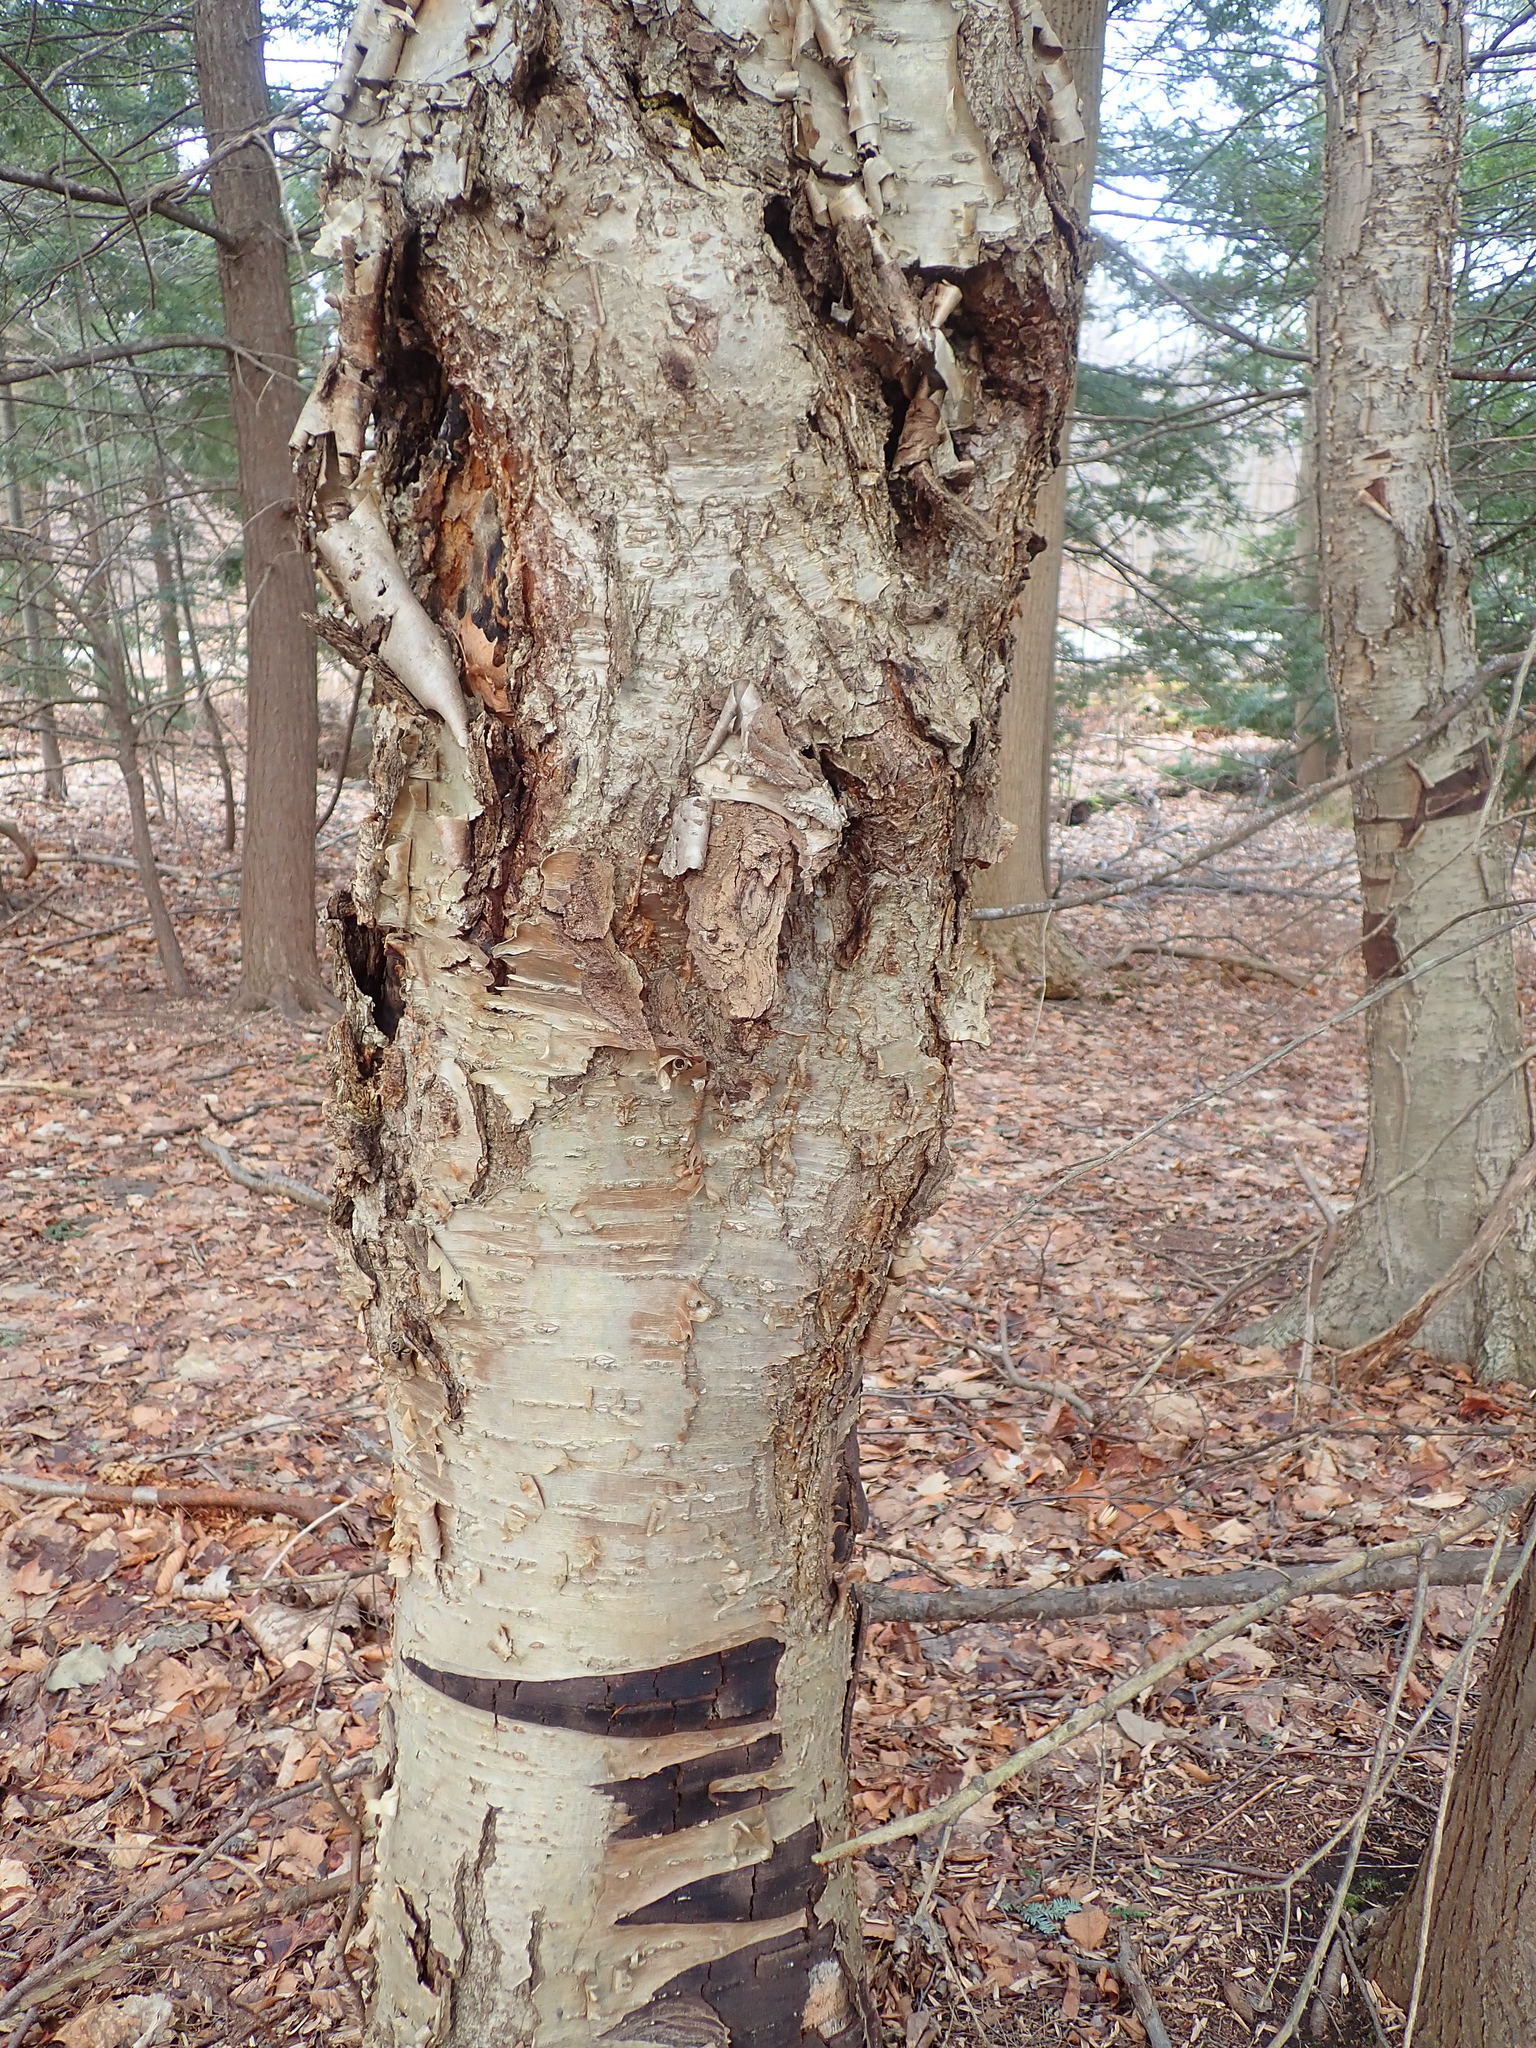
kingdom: Plantae
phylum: Tracheophyta
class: Magnoliopsida
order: Fagales
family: Betulaceae
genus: Betula
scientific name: Betula alleghaniensis
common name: Yellow birch
